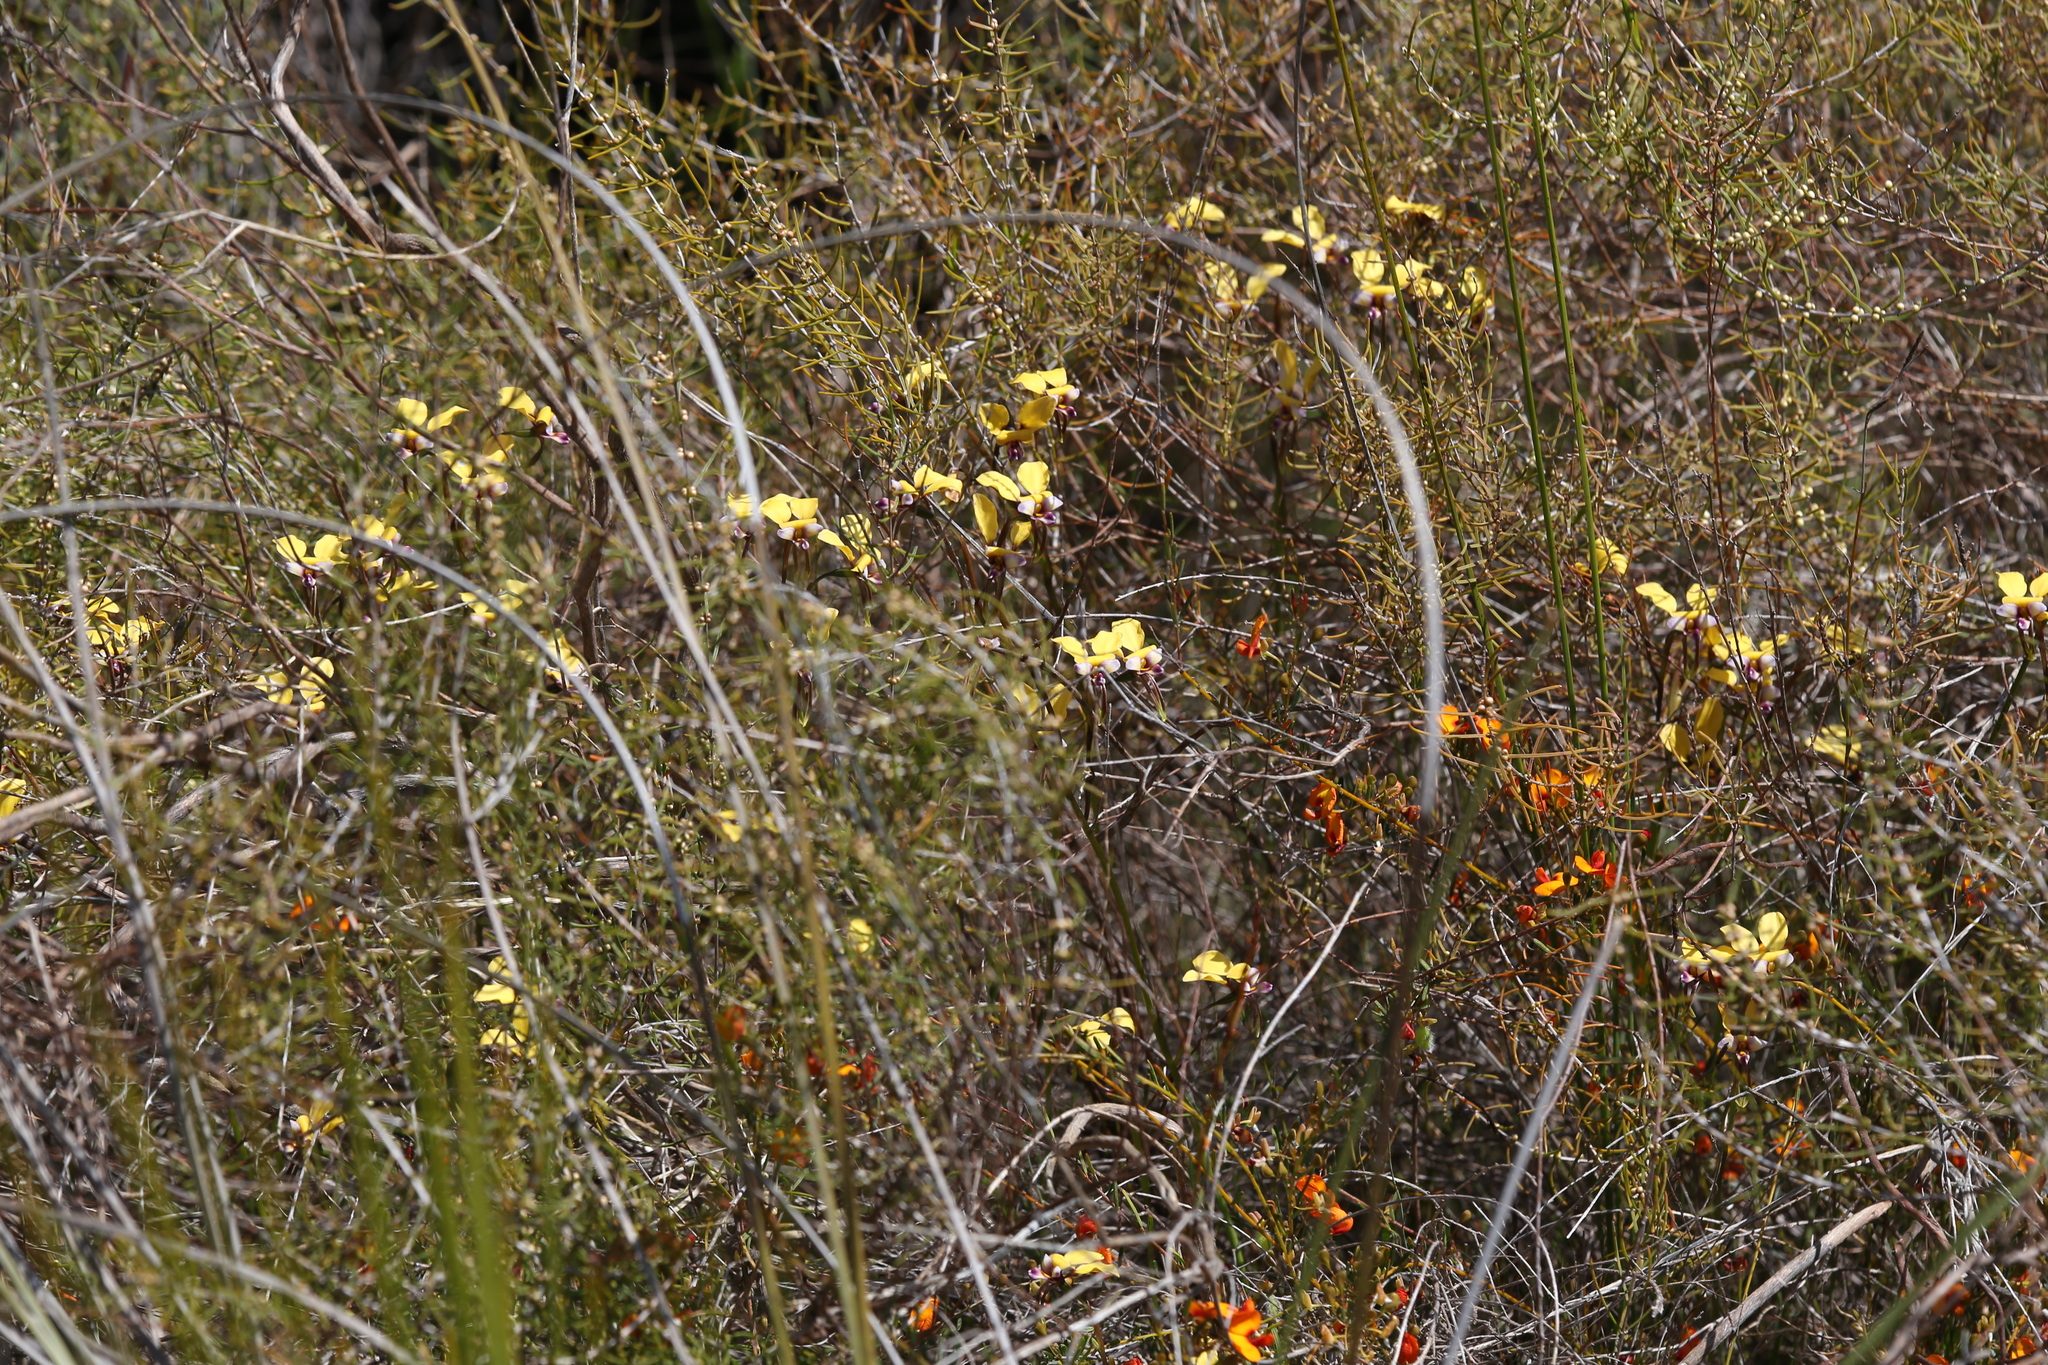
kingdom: Plantae
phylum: Tracheophyta
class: Liliopsida
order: Asparagales
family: Orchidaceae
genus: Diuris
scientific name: Diuris magnifica
